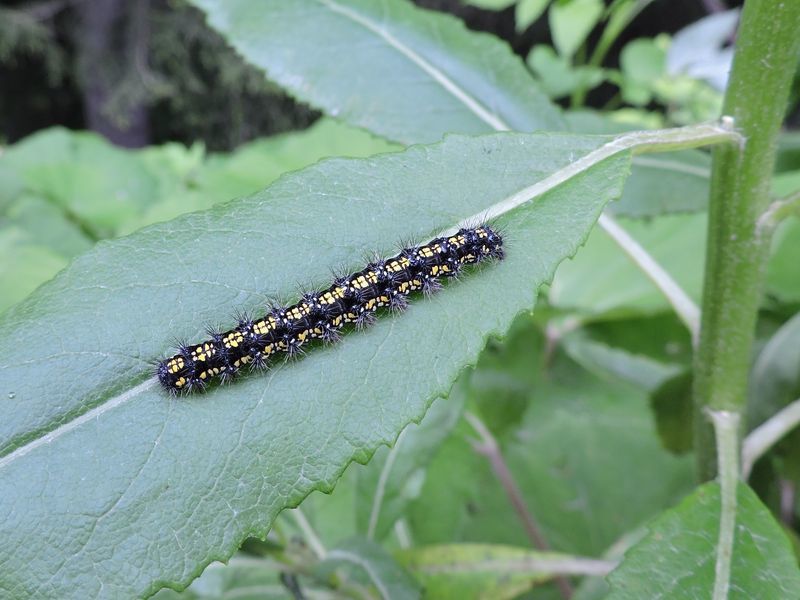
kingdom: Animalia
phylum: Arthropoda
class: Insecta
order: Lepidoptera
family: Erebidae
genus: Callimorpha
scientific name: Callimorpha dominula
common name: Scarlet tiger
